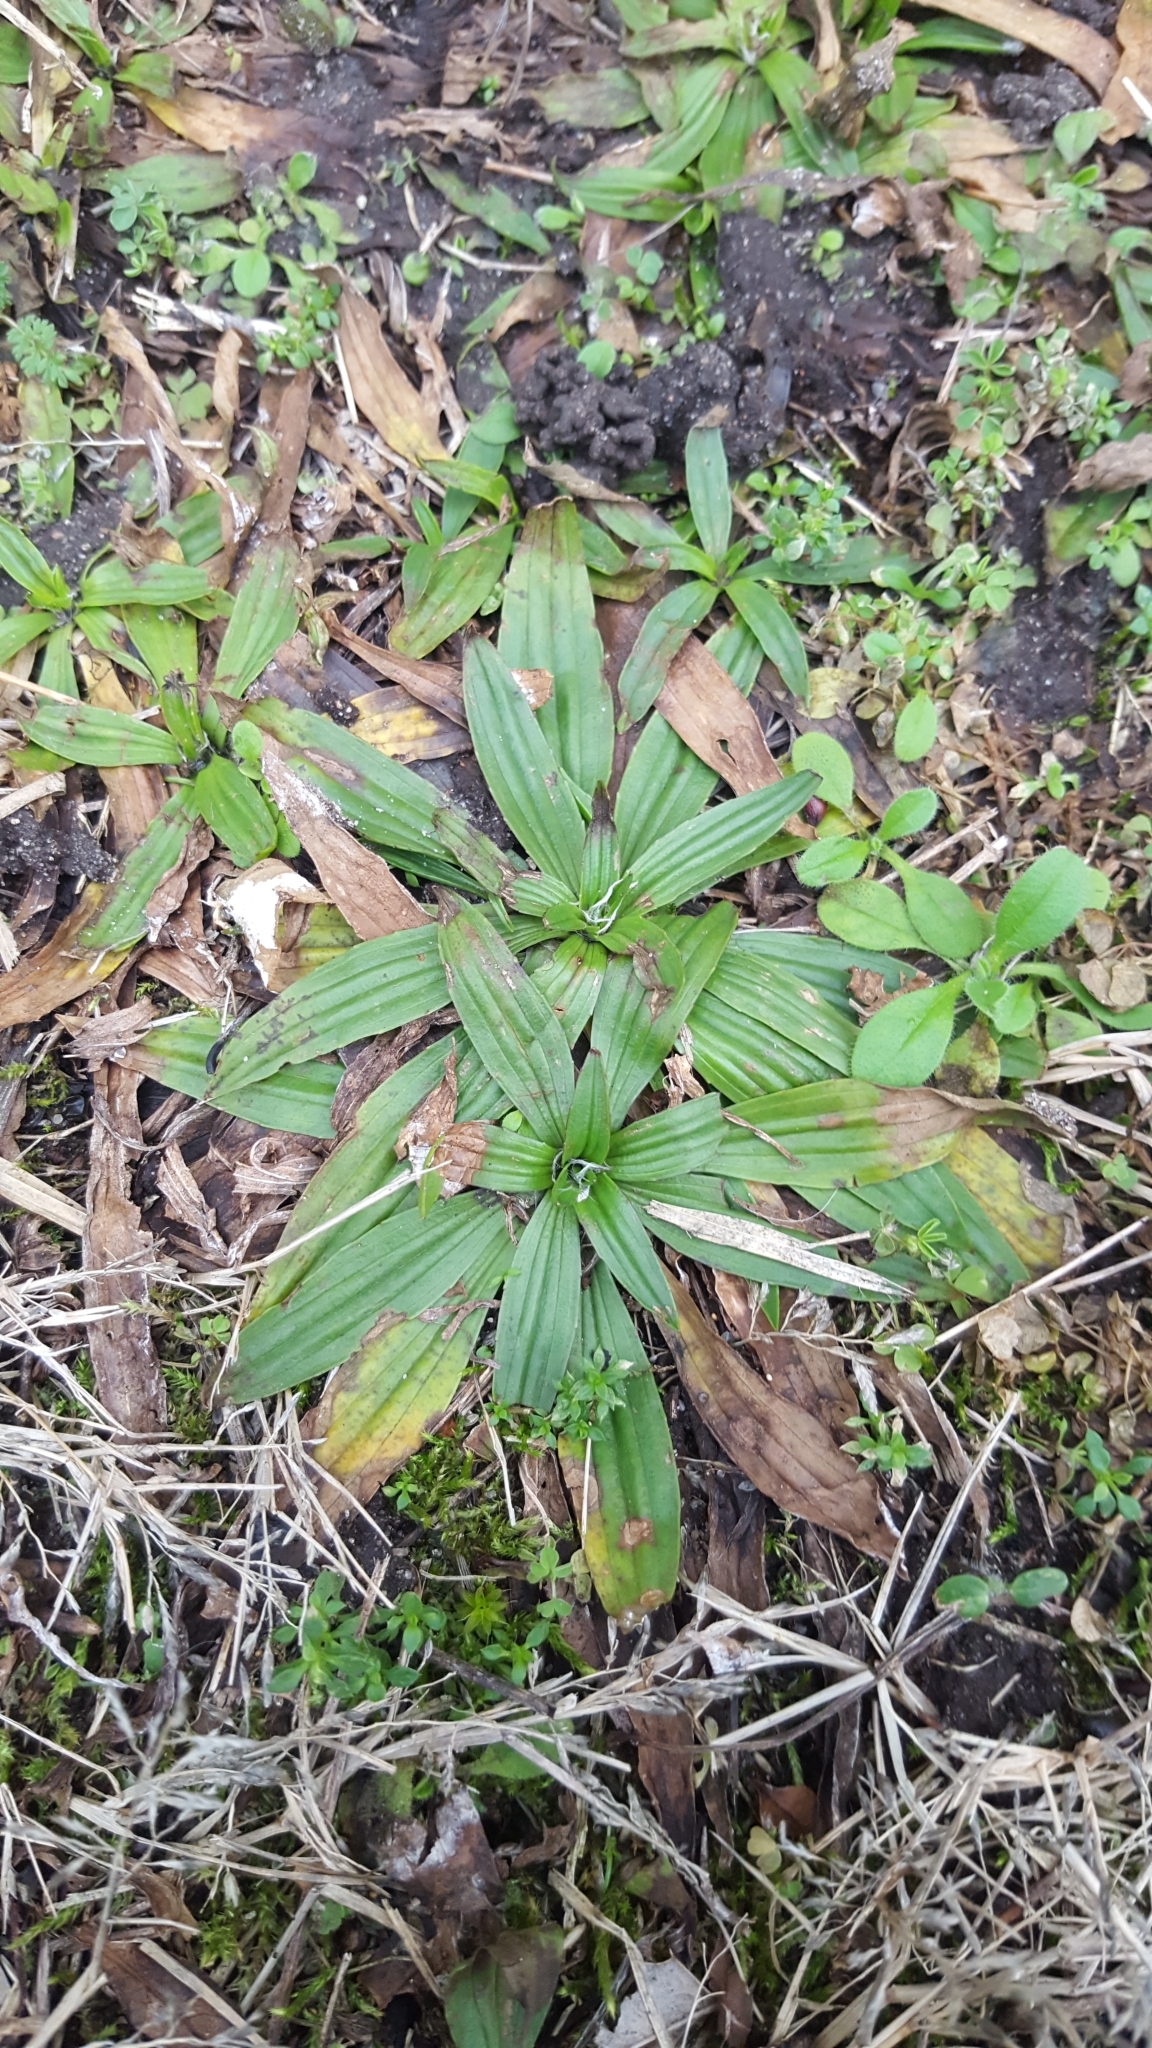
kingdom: Plantae
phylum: Tracheophyta
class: Magnoliopsida
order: Lamiales
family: Plantaginaceae
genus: Plantago
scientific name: Plantago lanceolata
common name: Ribwort plantain
